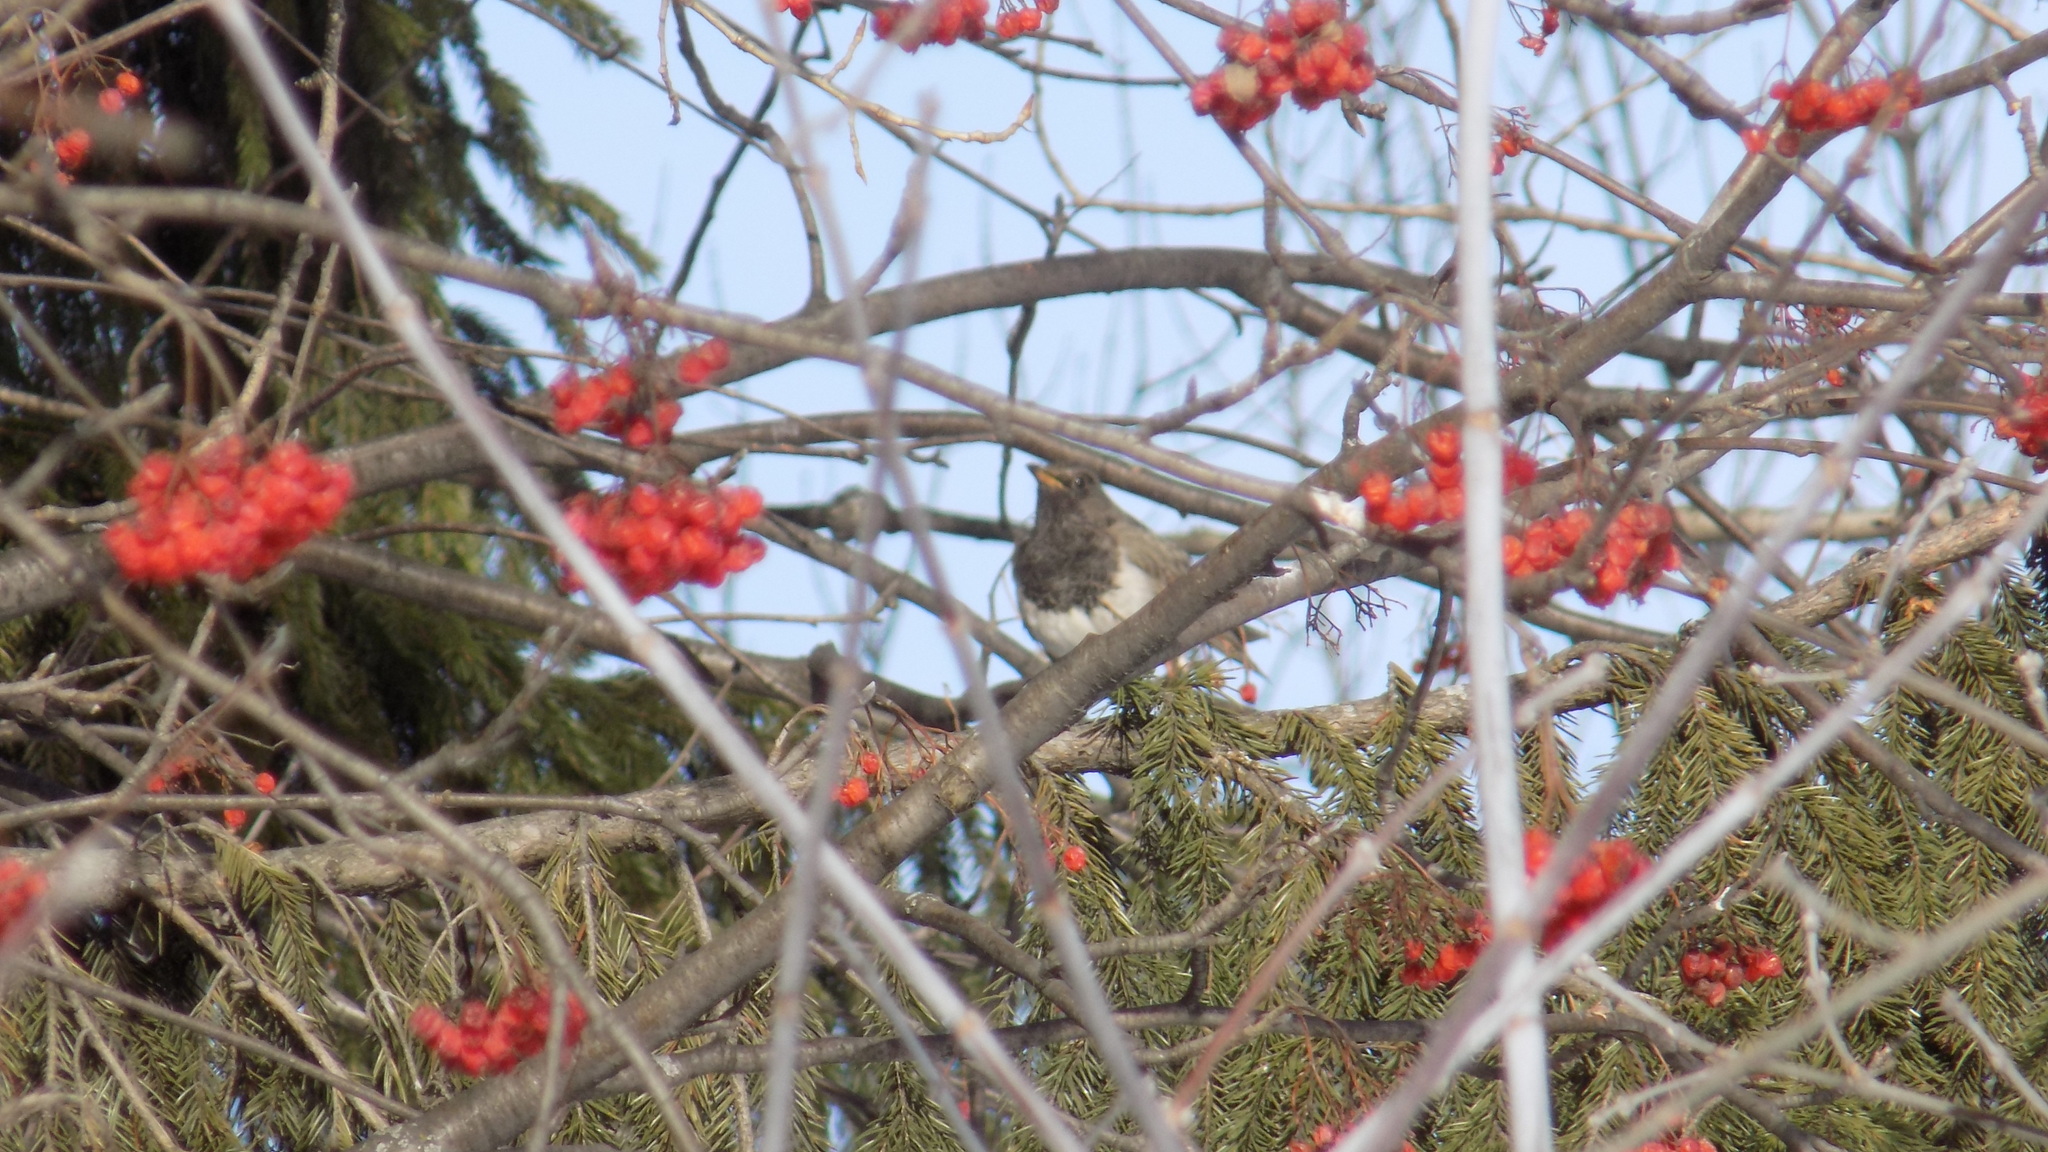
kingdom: Animalia
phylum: Chordata
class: Aves
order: Passeriformes
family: Turdidae
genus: Turdus
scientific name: Turdus atrogularis
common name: Black-throated thrush
